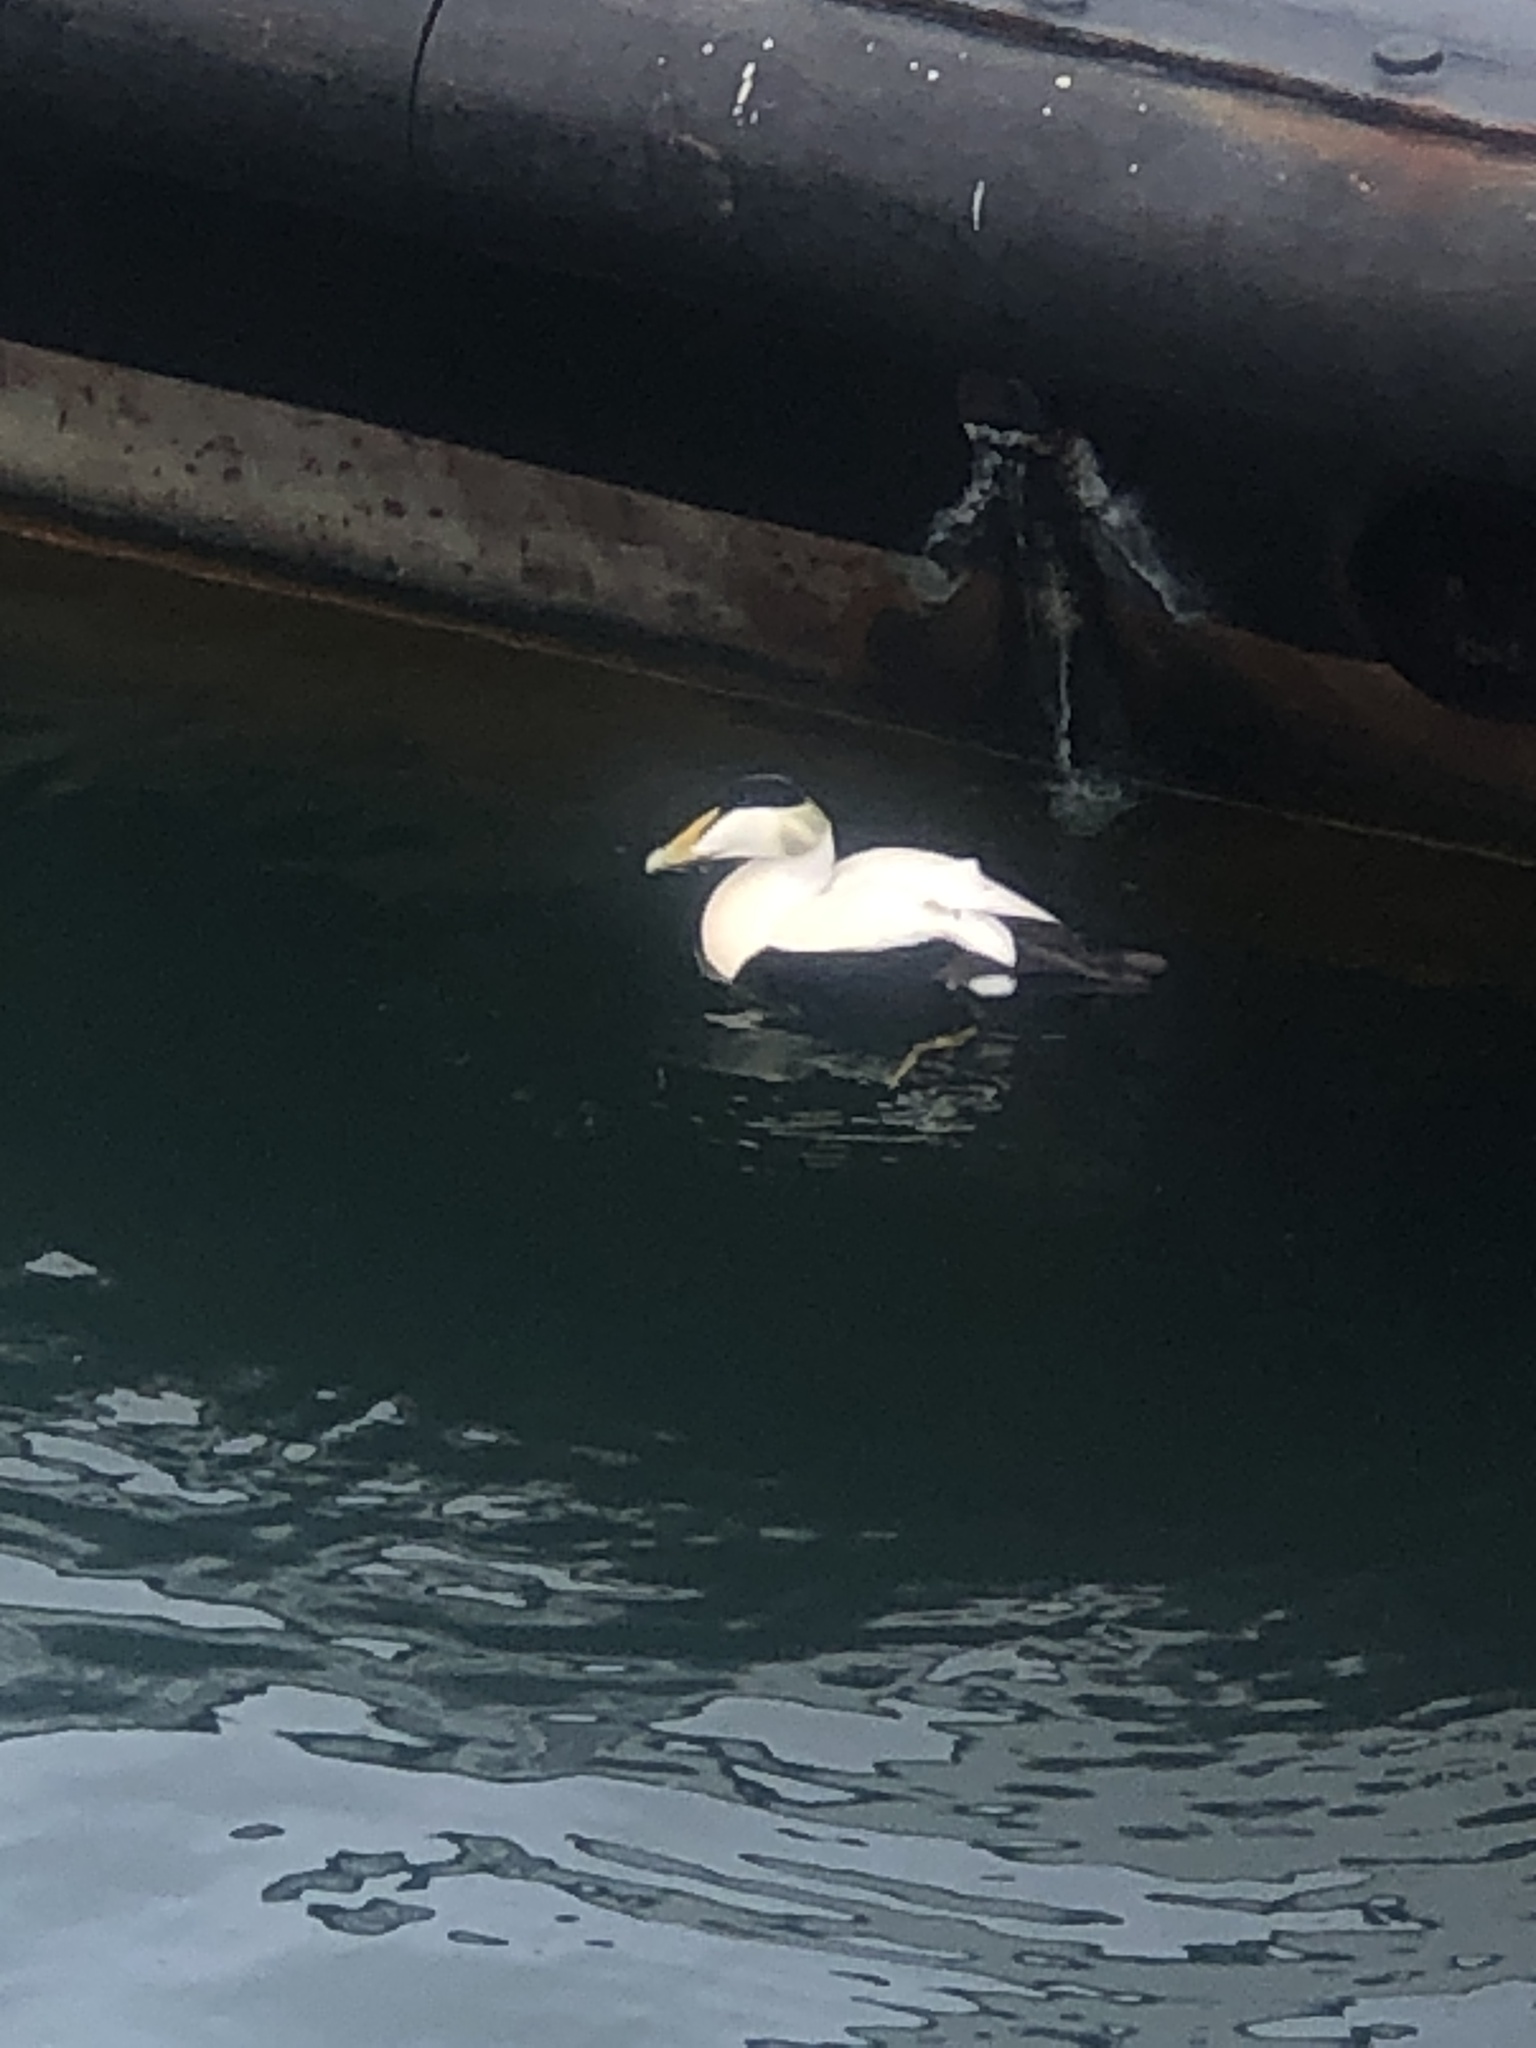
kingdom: Animalia
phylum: Chordata
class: Aves
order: Anseriformes
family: Anatidae
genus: Somateria
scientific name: Somateria mollissima
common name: Common eider
